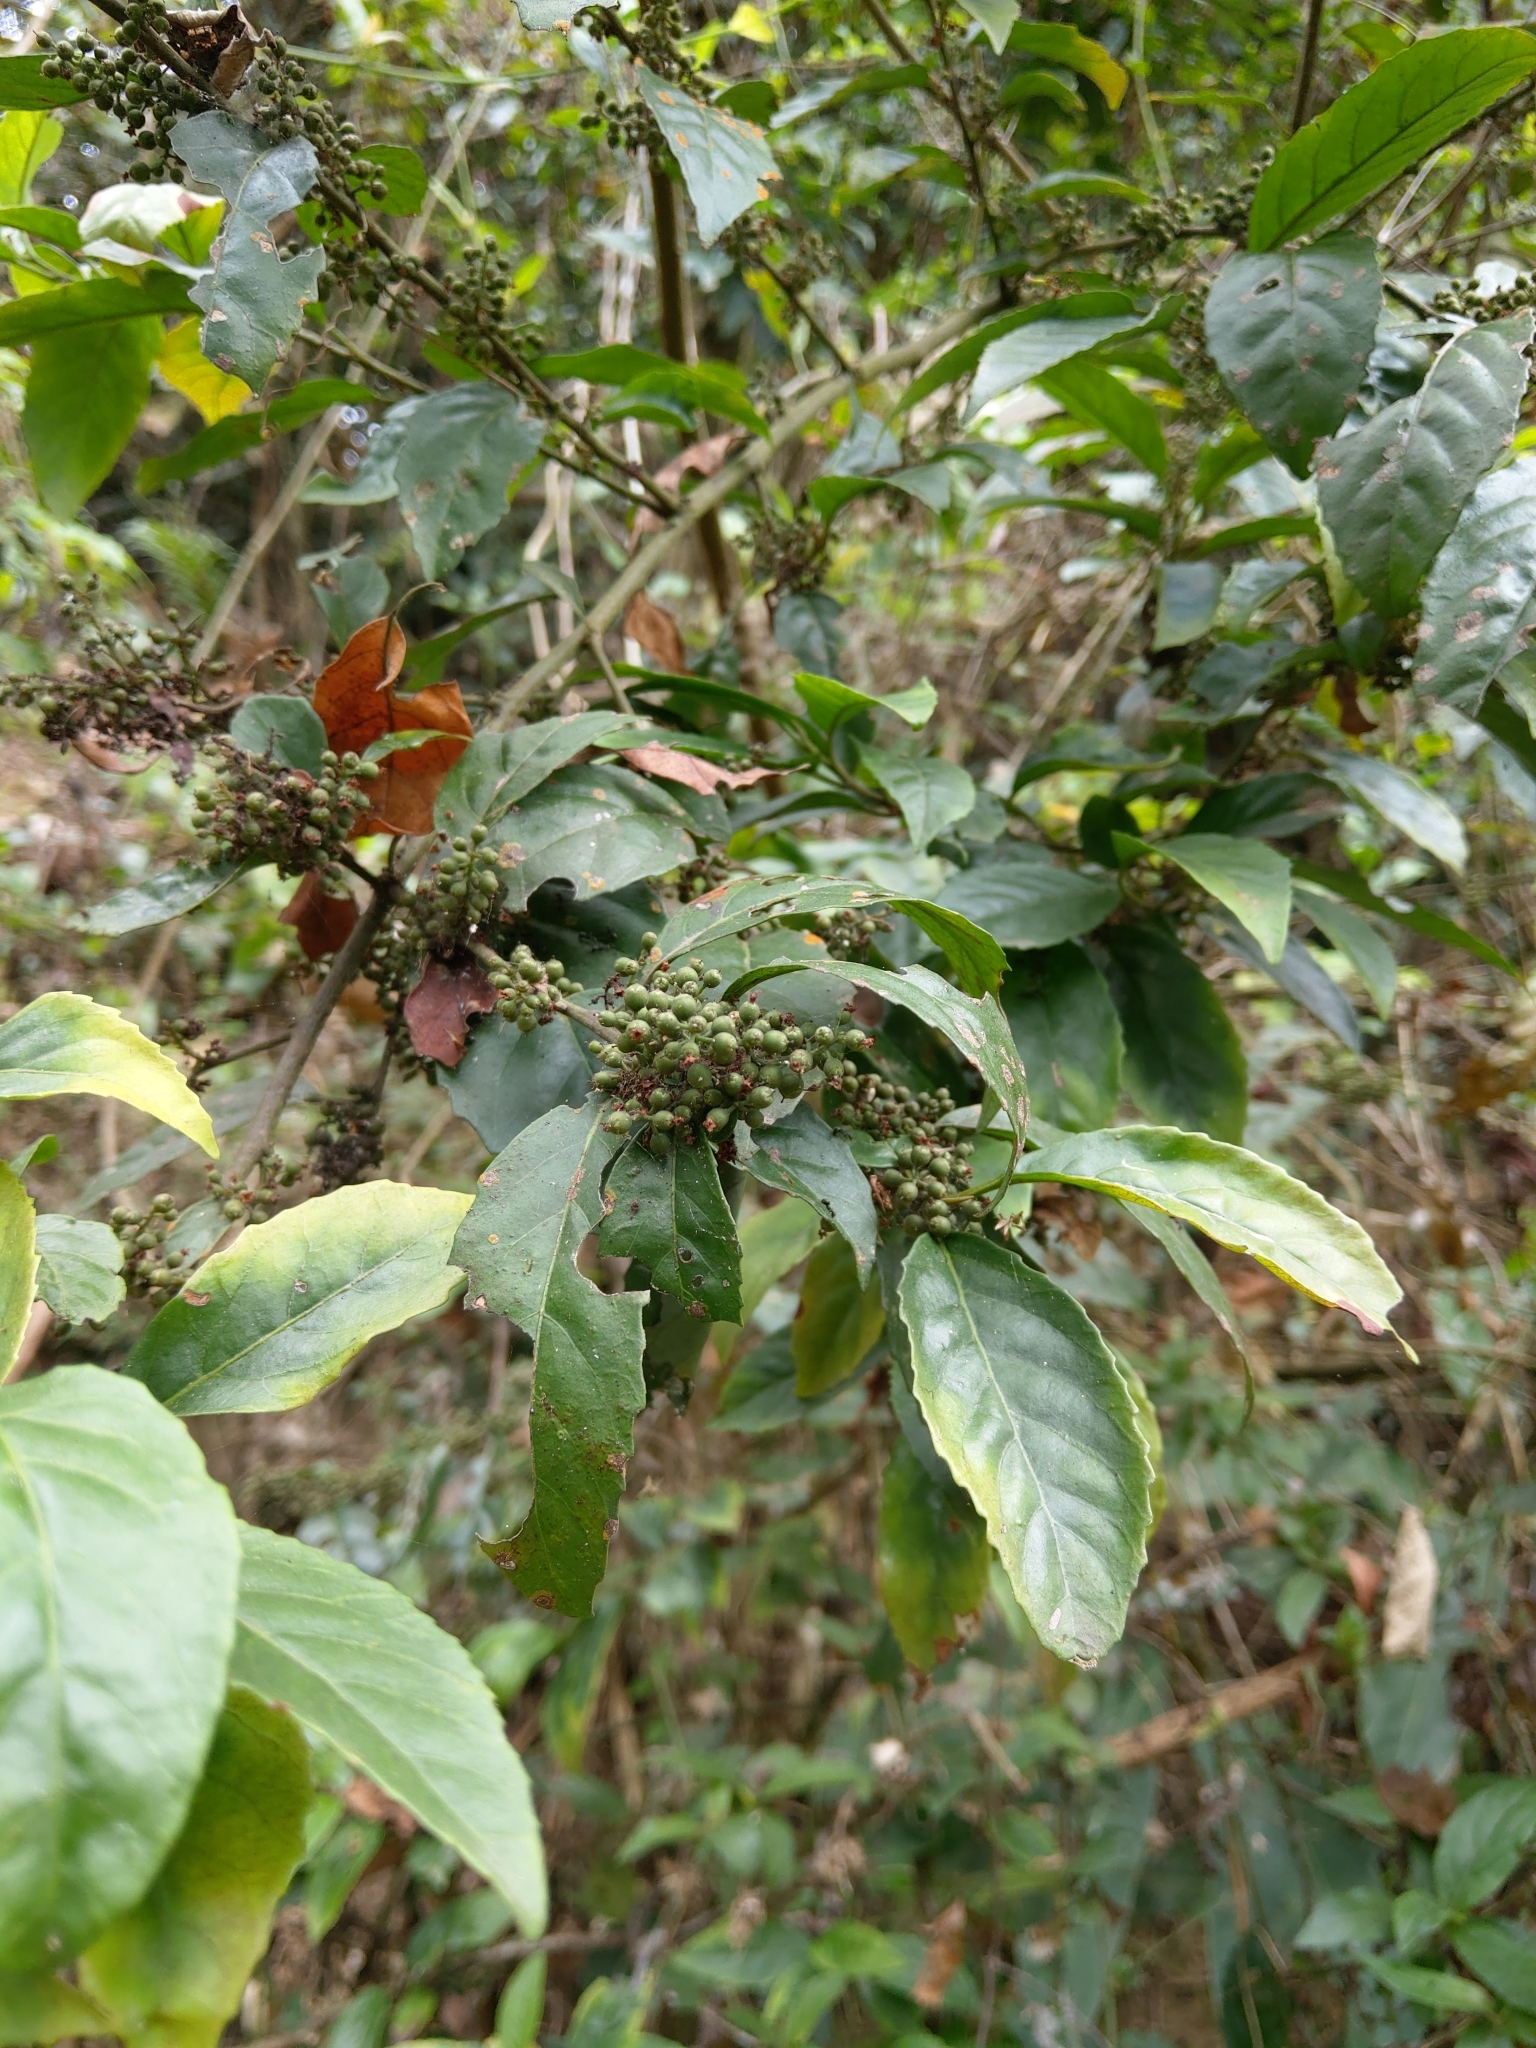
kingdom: Plantae
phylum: Tracheophyta
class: Magnoliopsida
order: Ericales
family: Primulaceae
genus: Maesa
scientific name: Maesa perlaria
